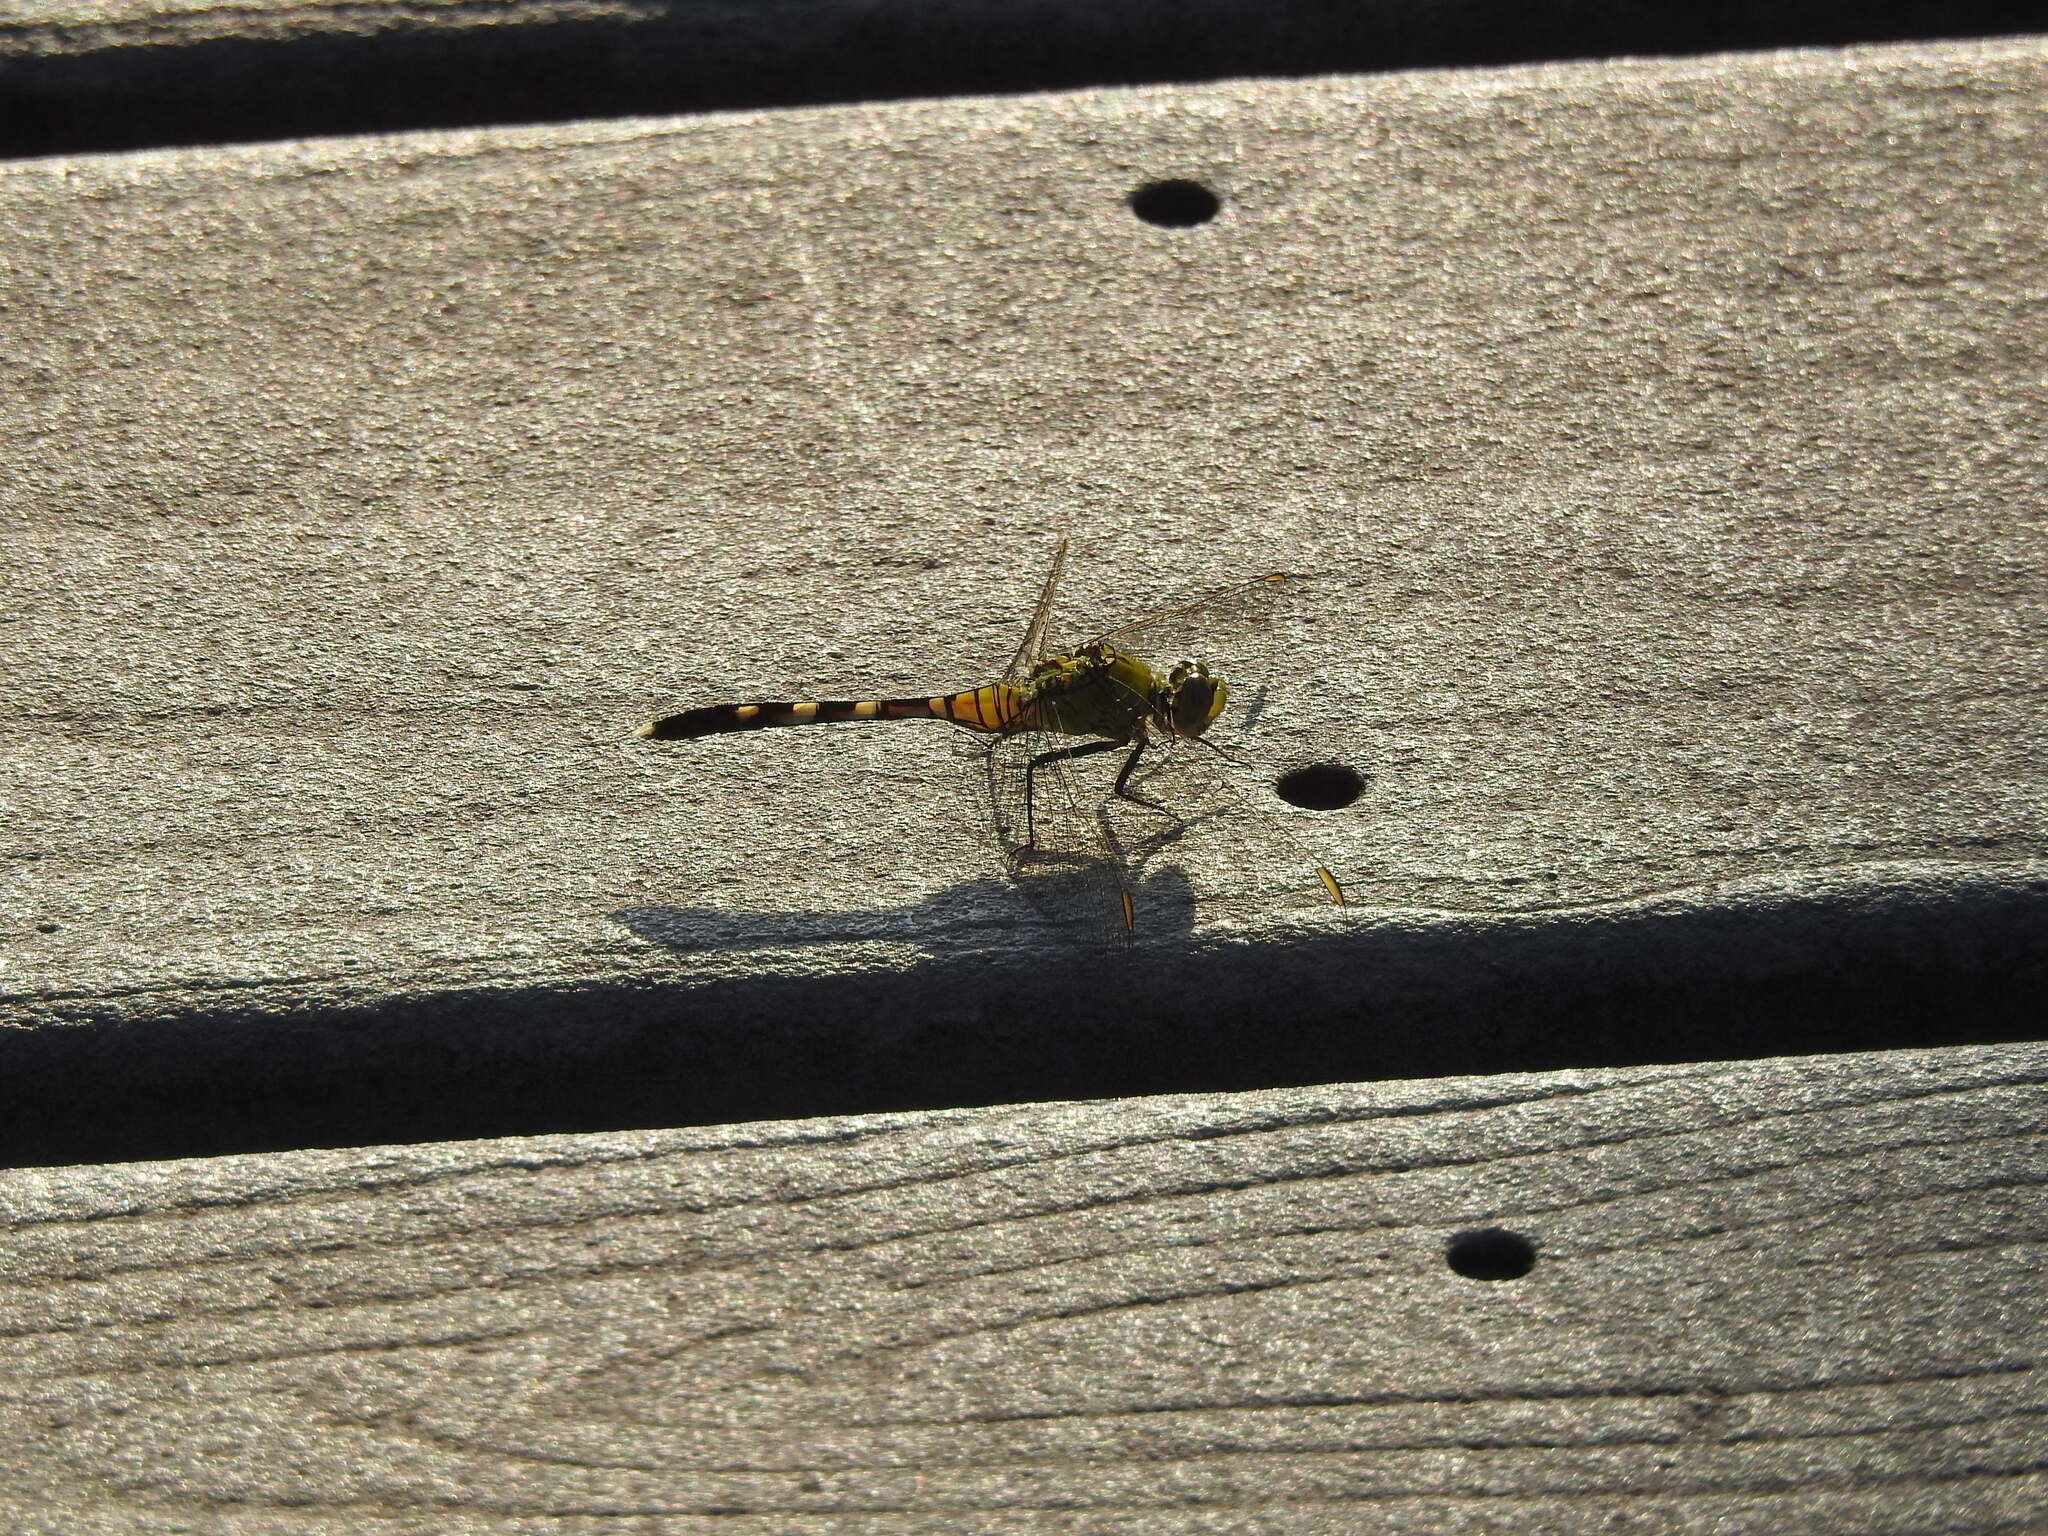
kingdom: Animalia
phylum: Arthropoda
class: Insecta
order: Odonata
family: Libellulidae
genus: Erythemis
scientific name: Erythemis simplicicollis
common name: Eastern pondhawk
